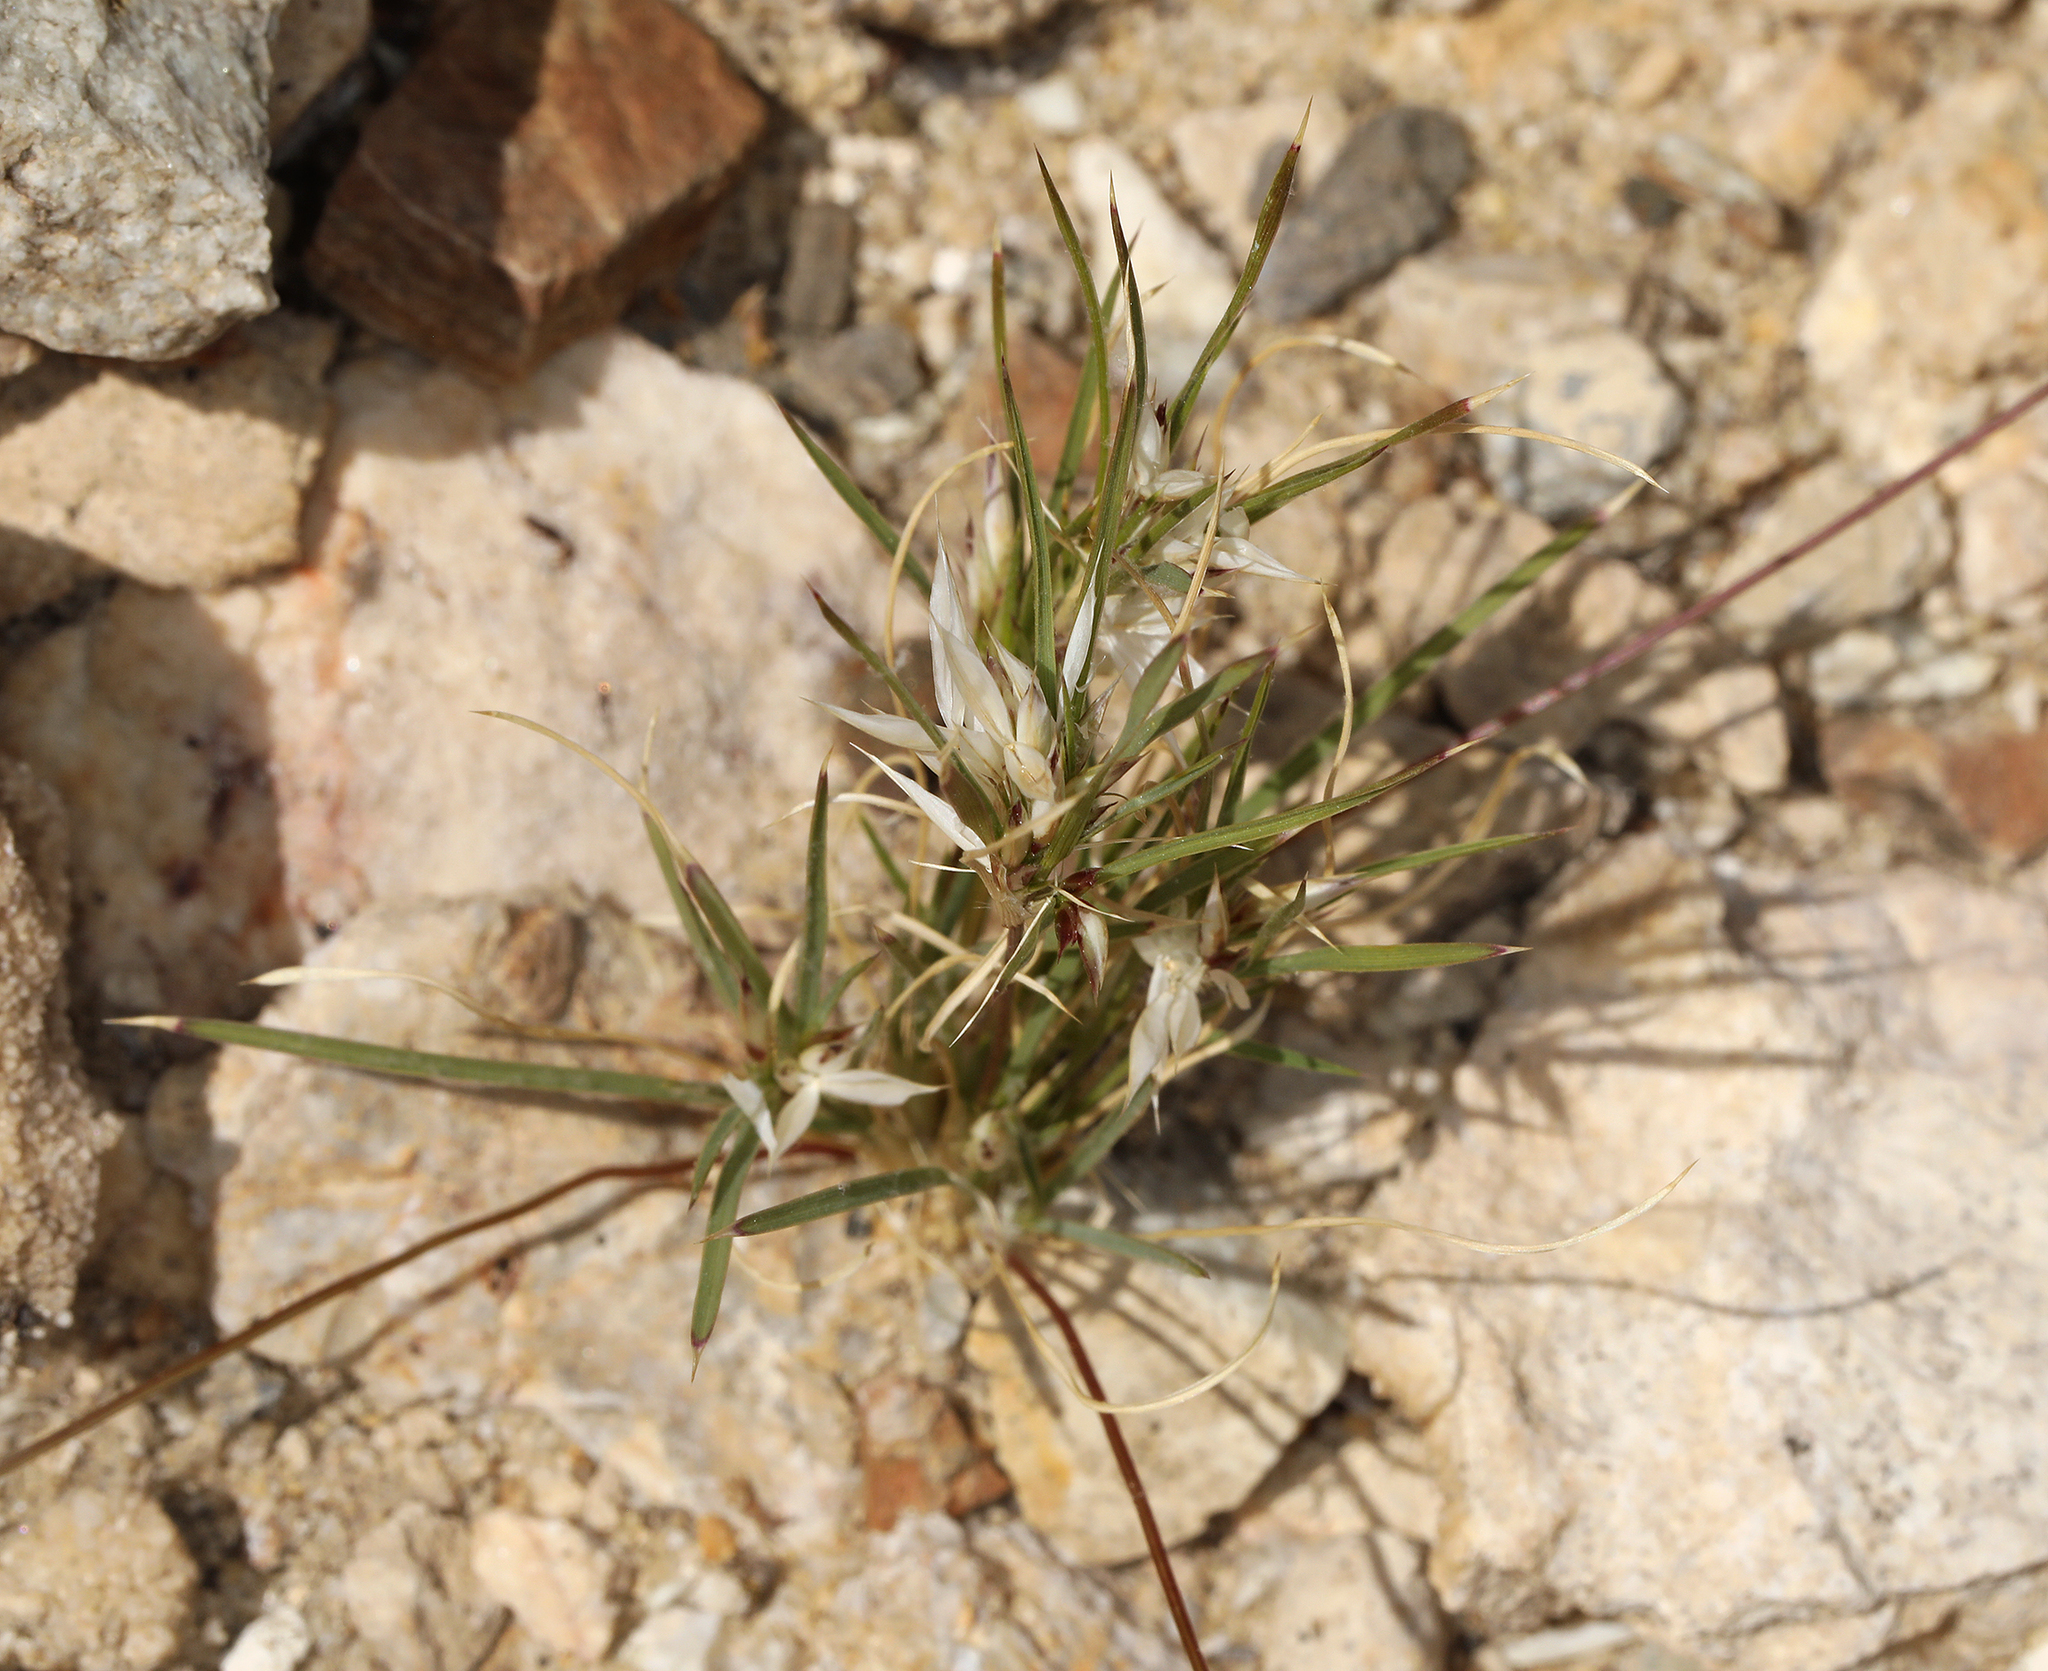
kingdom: Plantae
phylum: Tracheophyta
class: Liliopsida
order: Poales
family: Poaceae
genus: Dasyochloa
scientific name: Dasyochloa pulchella
